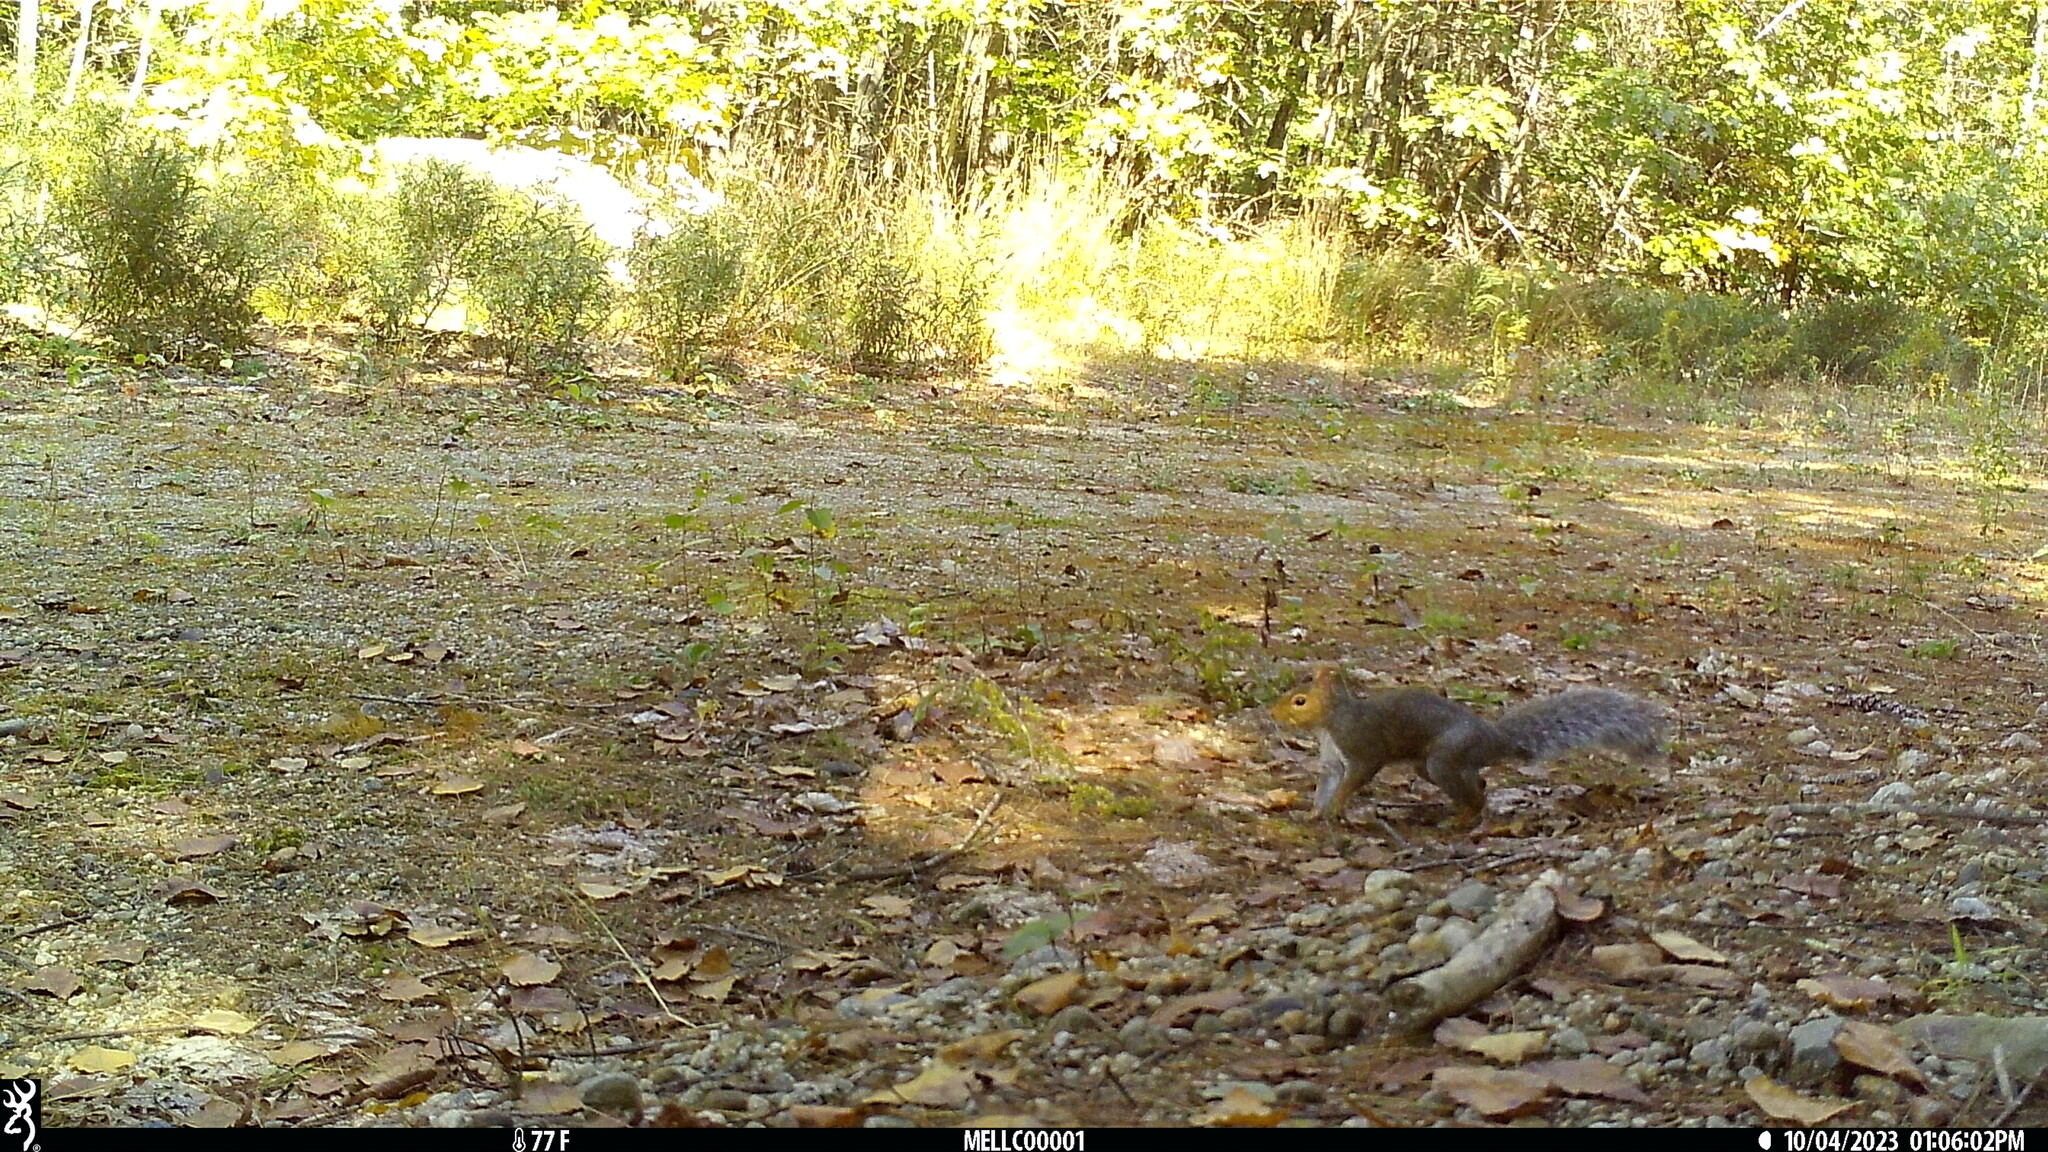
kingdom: Animalia
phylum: Chordata
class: Mammalia
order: Rodentia
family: Sciuridae
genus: Sciurus
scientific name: Sciurus carolinensis
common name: Eastern gray squirrel
